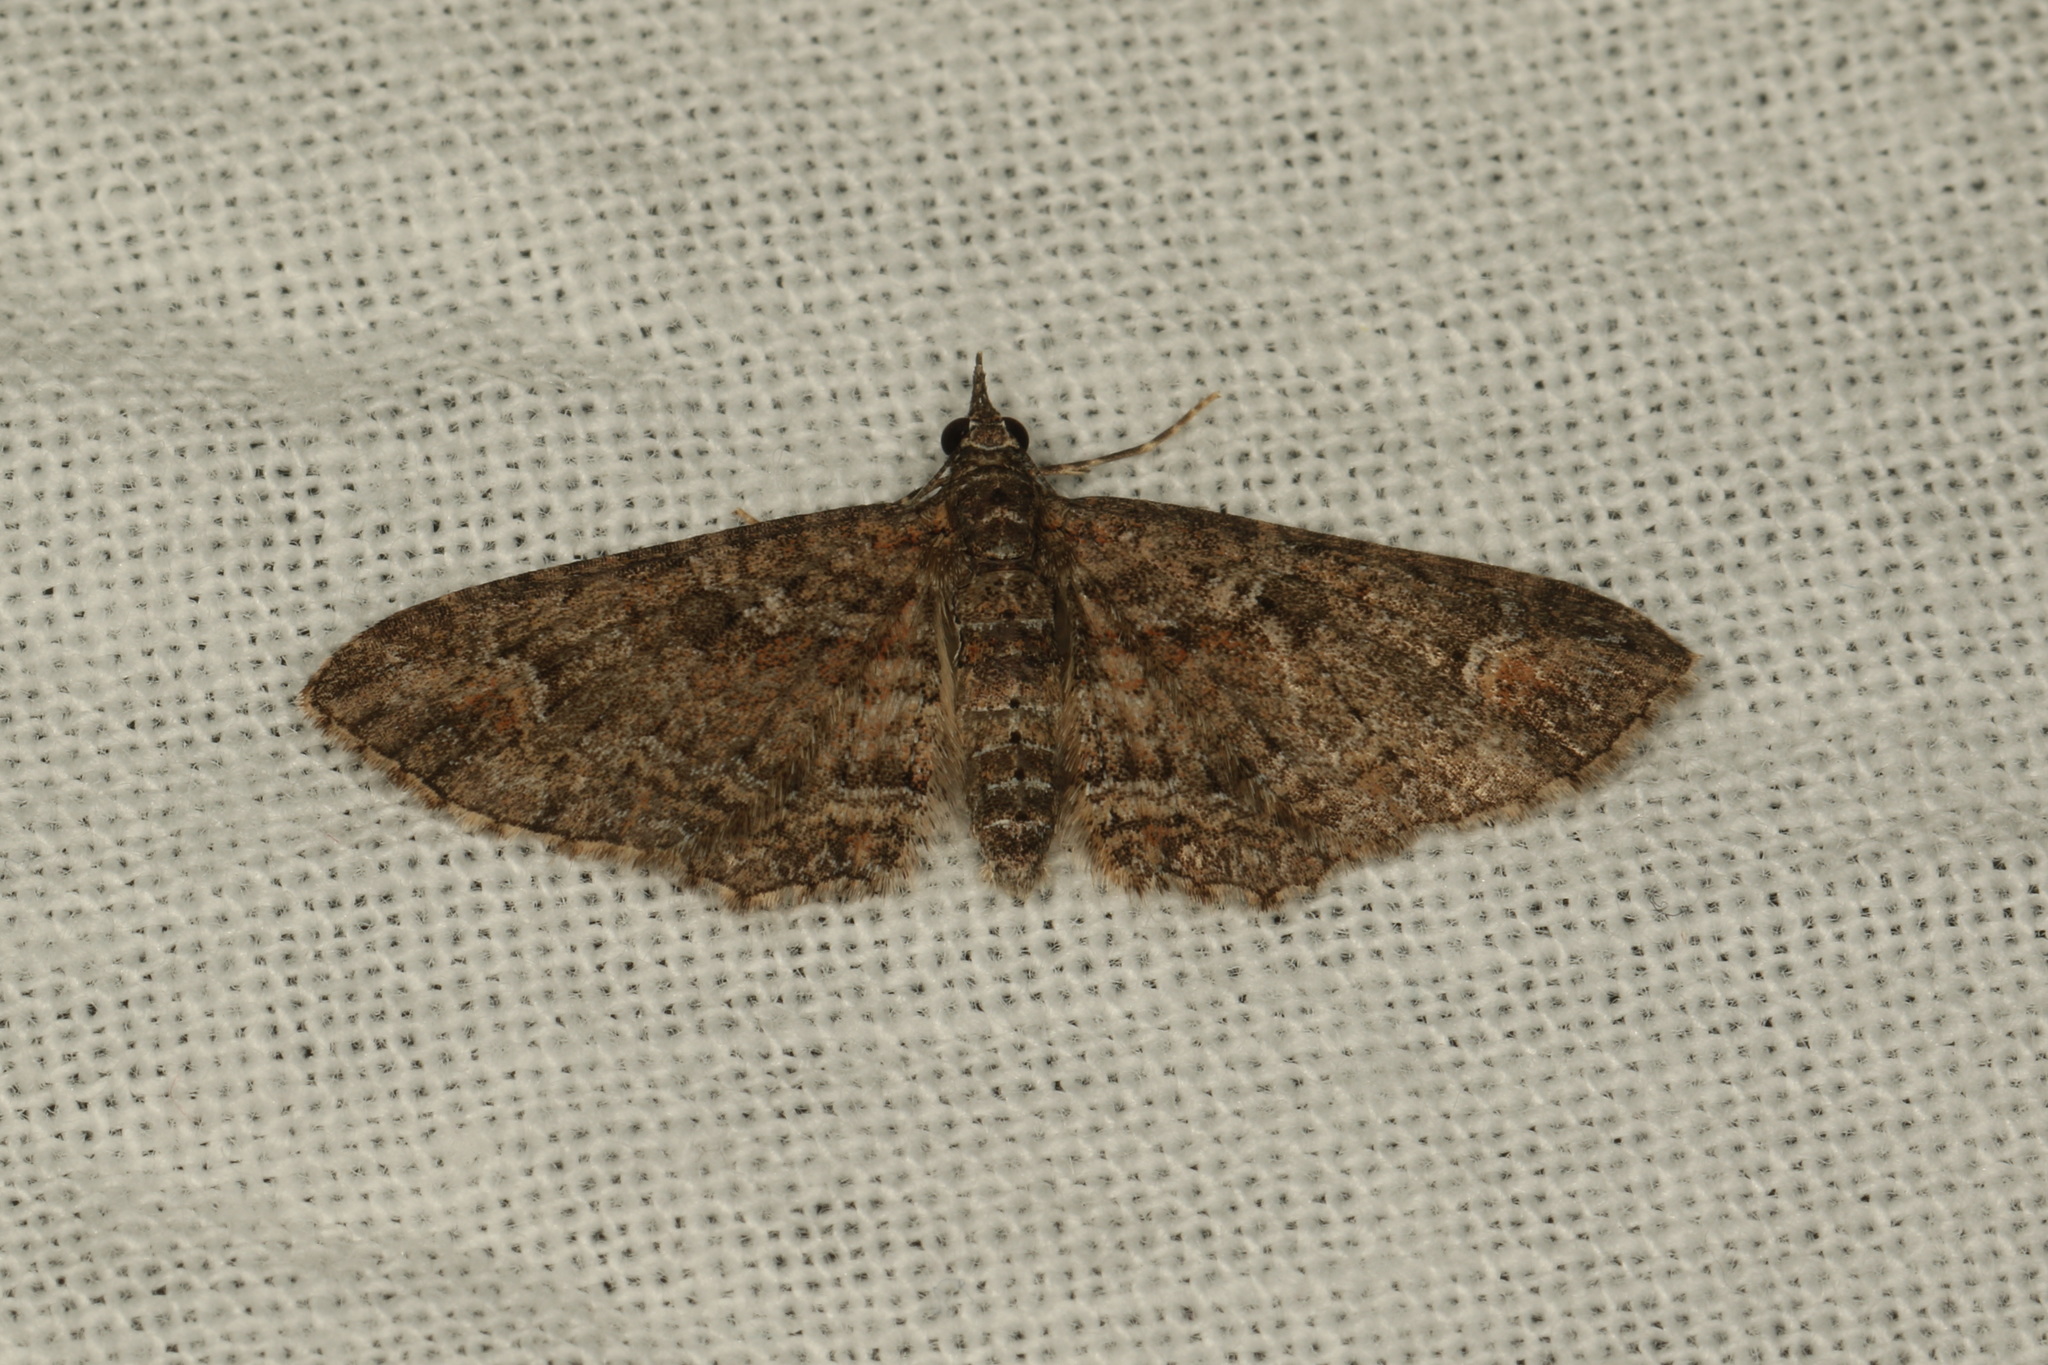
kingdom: Animalia
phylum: Arthropoda
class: Insecta
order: Lepidoptera
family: Geometridae
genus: Pasiphilodes
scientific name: Pasiphilodes testulata
